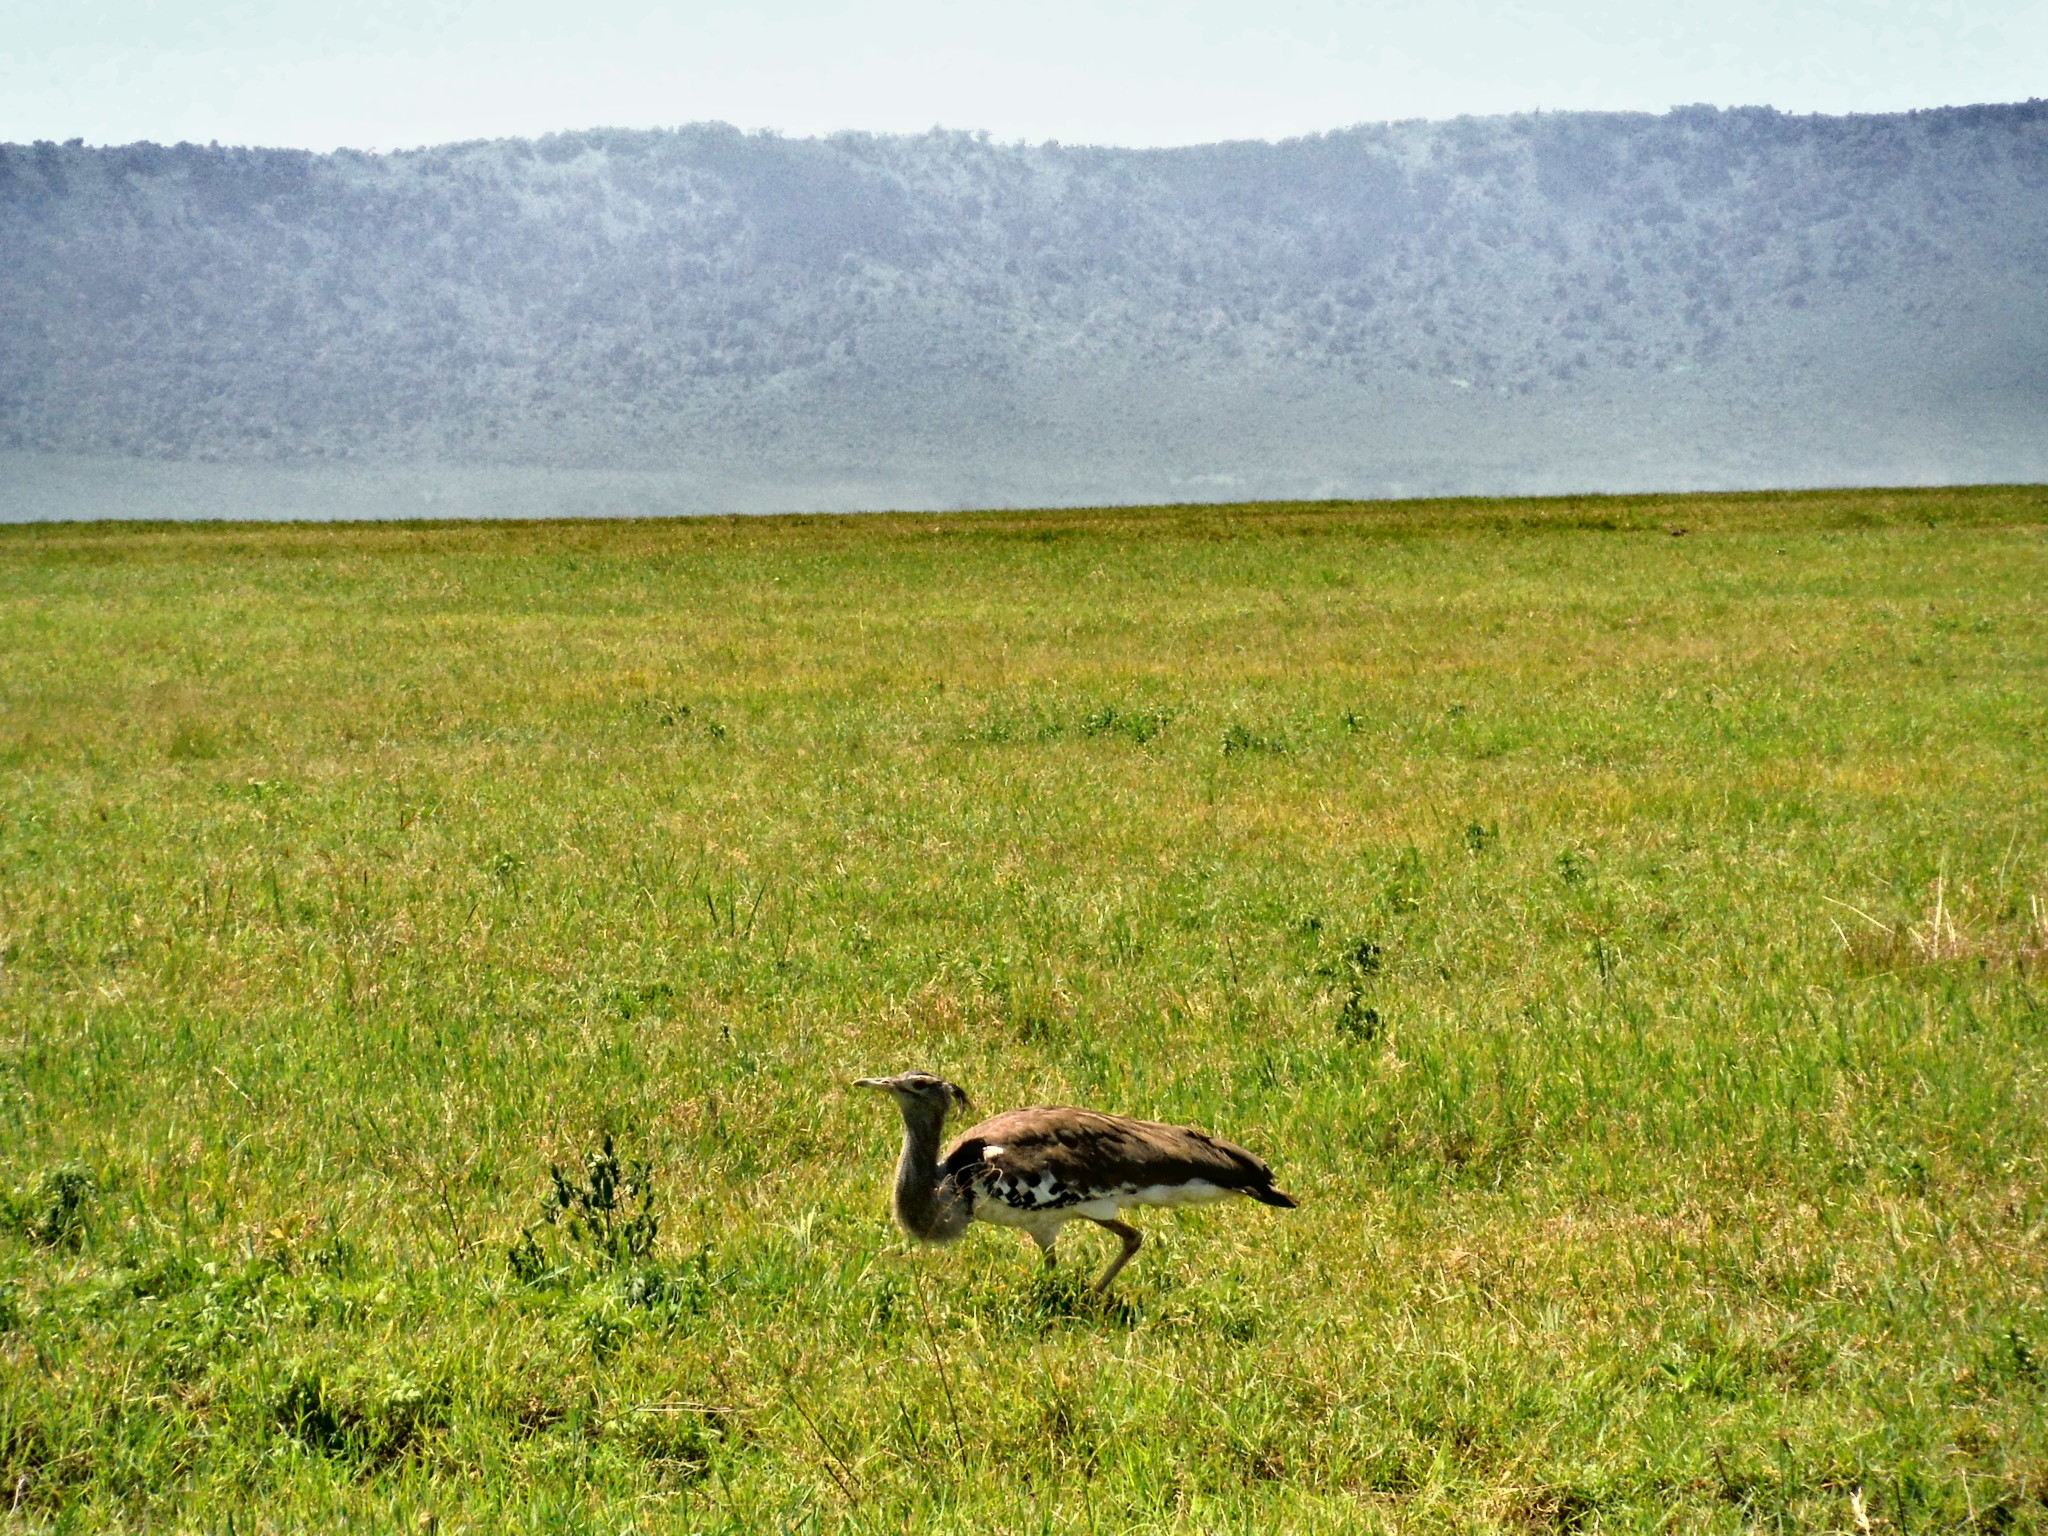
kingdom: Animalia
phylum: Chordata
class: Aves
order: Otidiformes
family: Otididae
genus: Ardeotis
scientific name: Ardeotis kori
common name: Kori bustard
